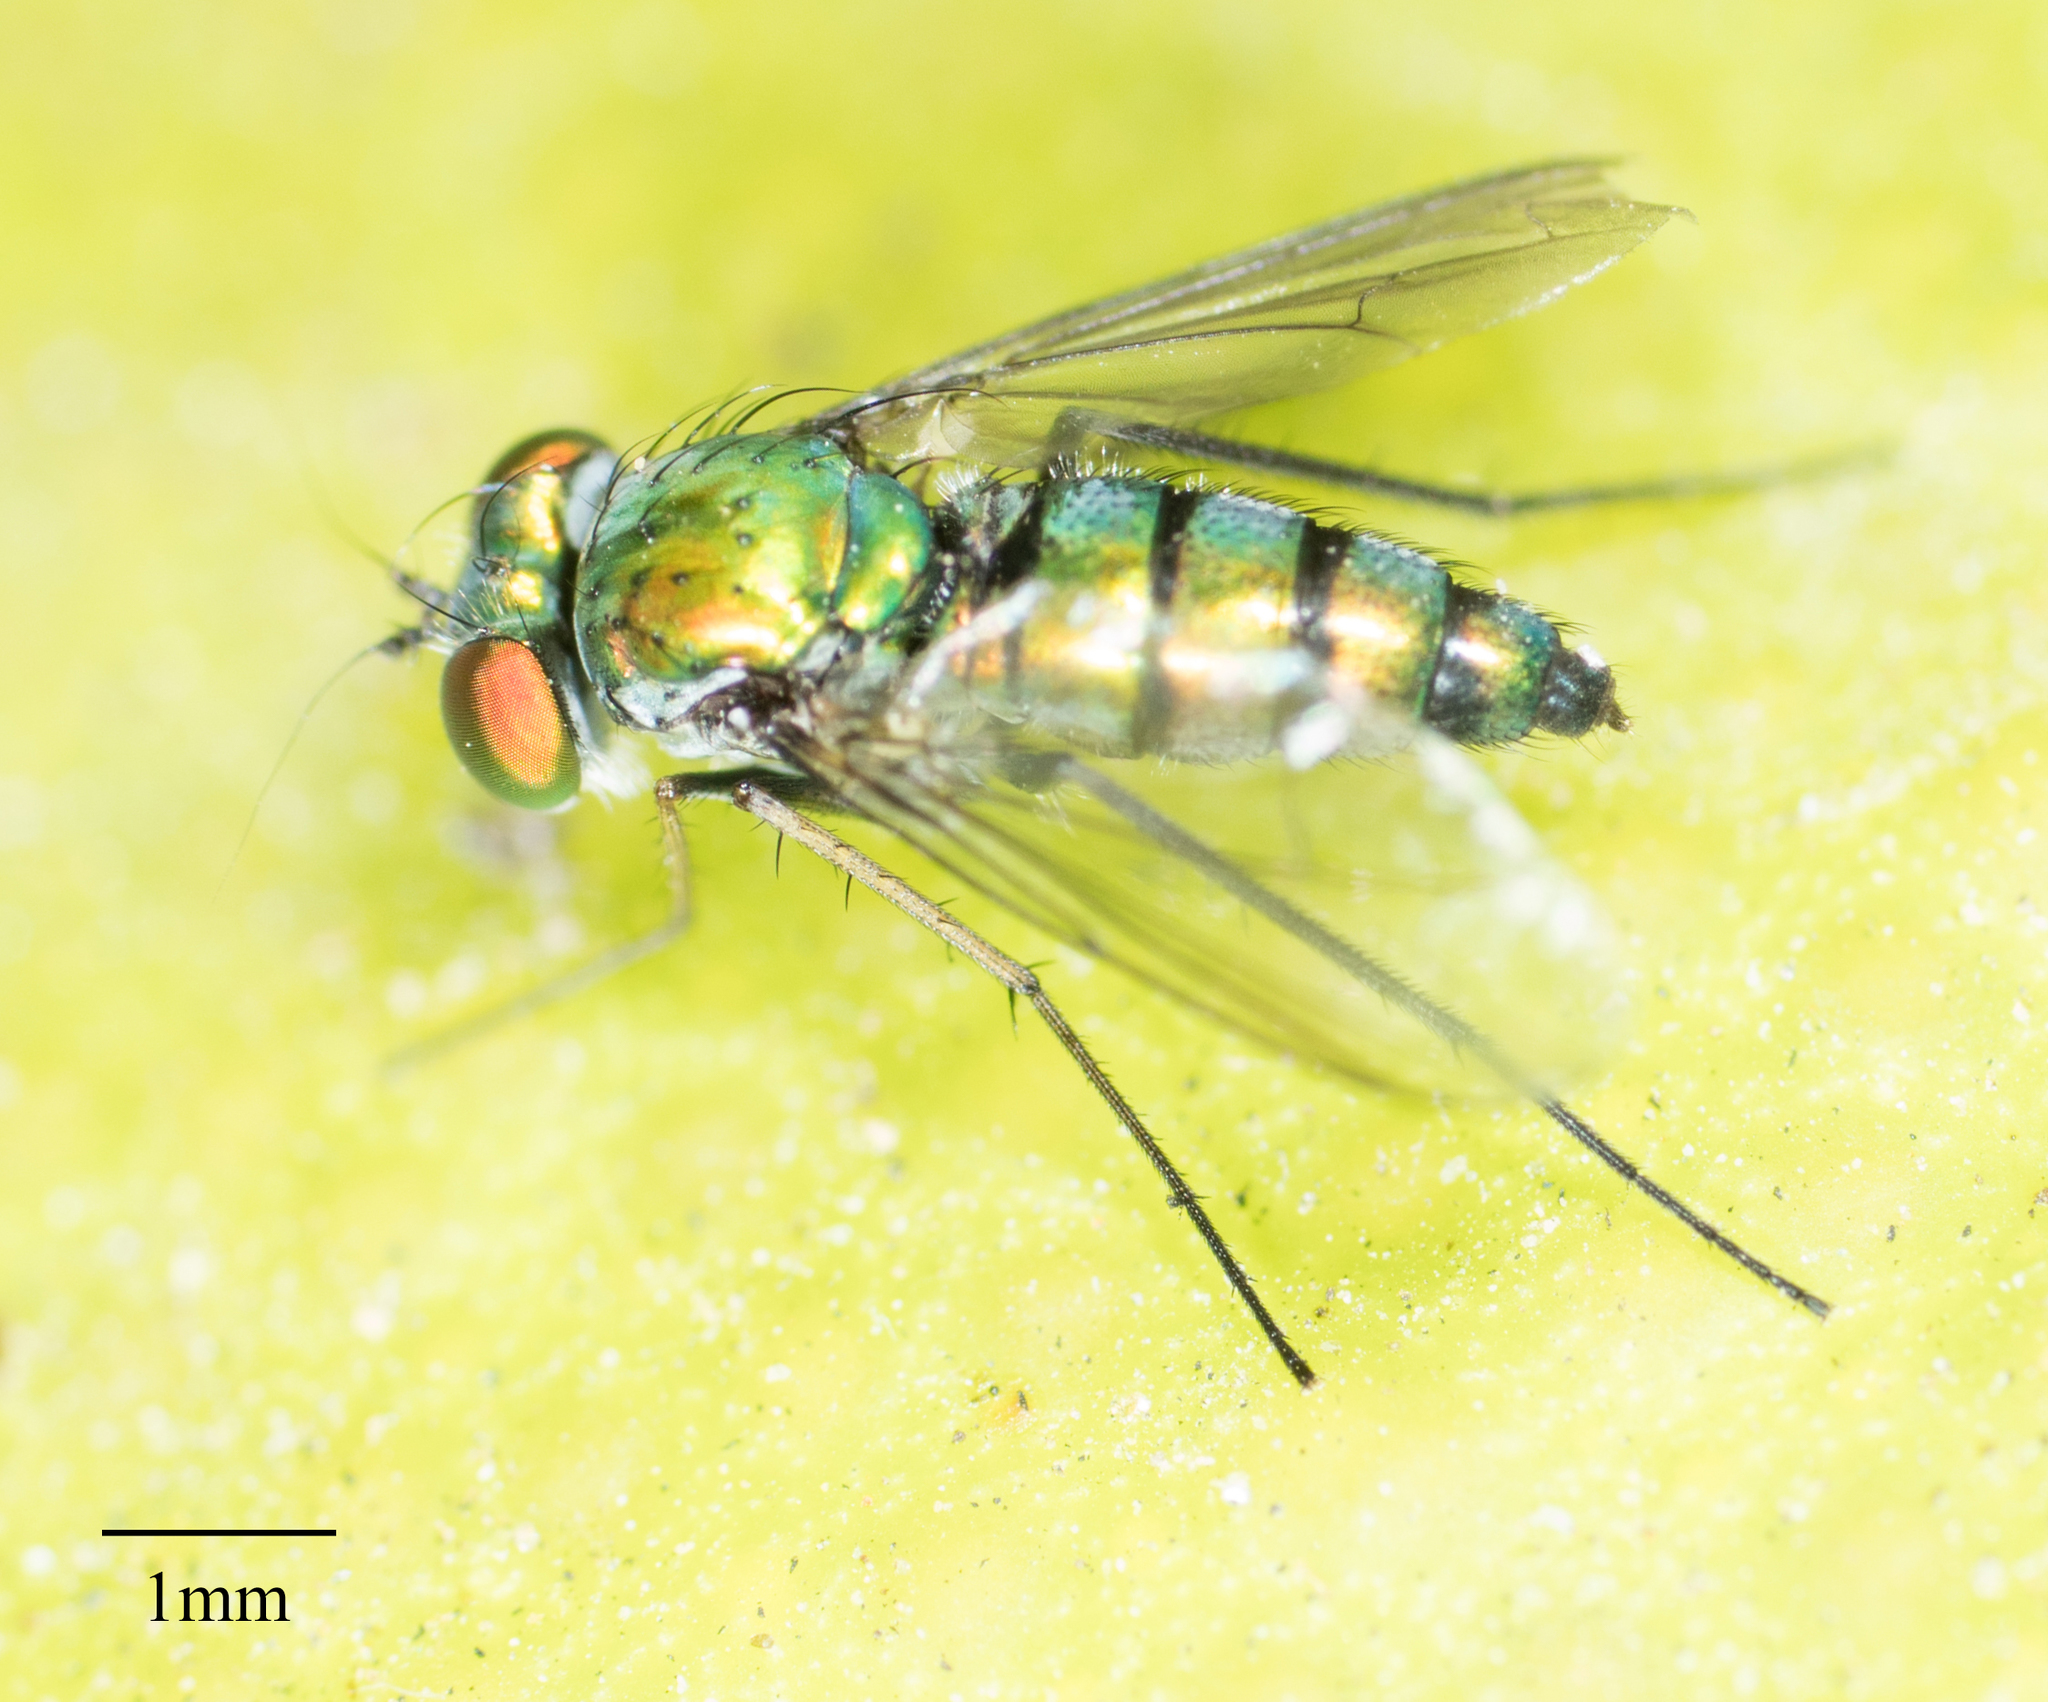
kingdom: Animalia
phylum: Arthropoda
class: Insecta
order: Diptera
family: Dolichopodidae
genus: Condylostylus
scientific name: Condylostylus longicornis
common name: Long-legged fly
